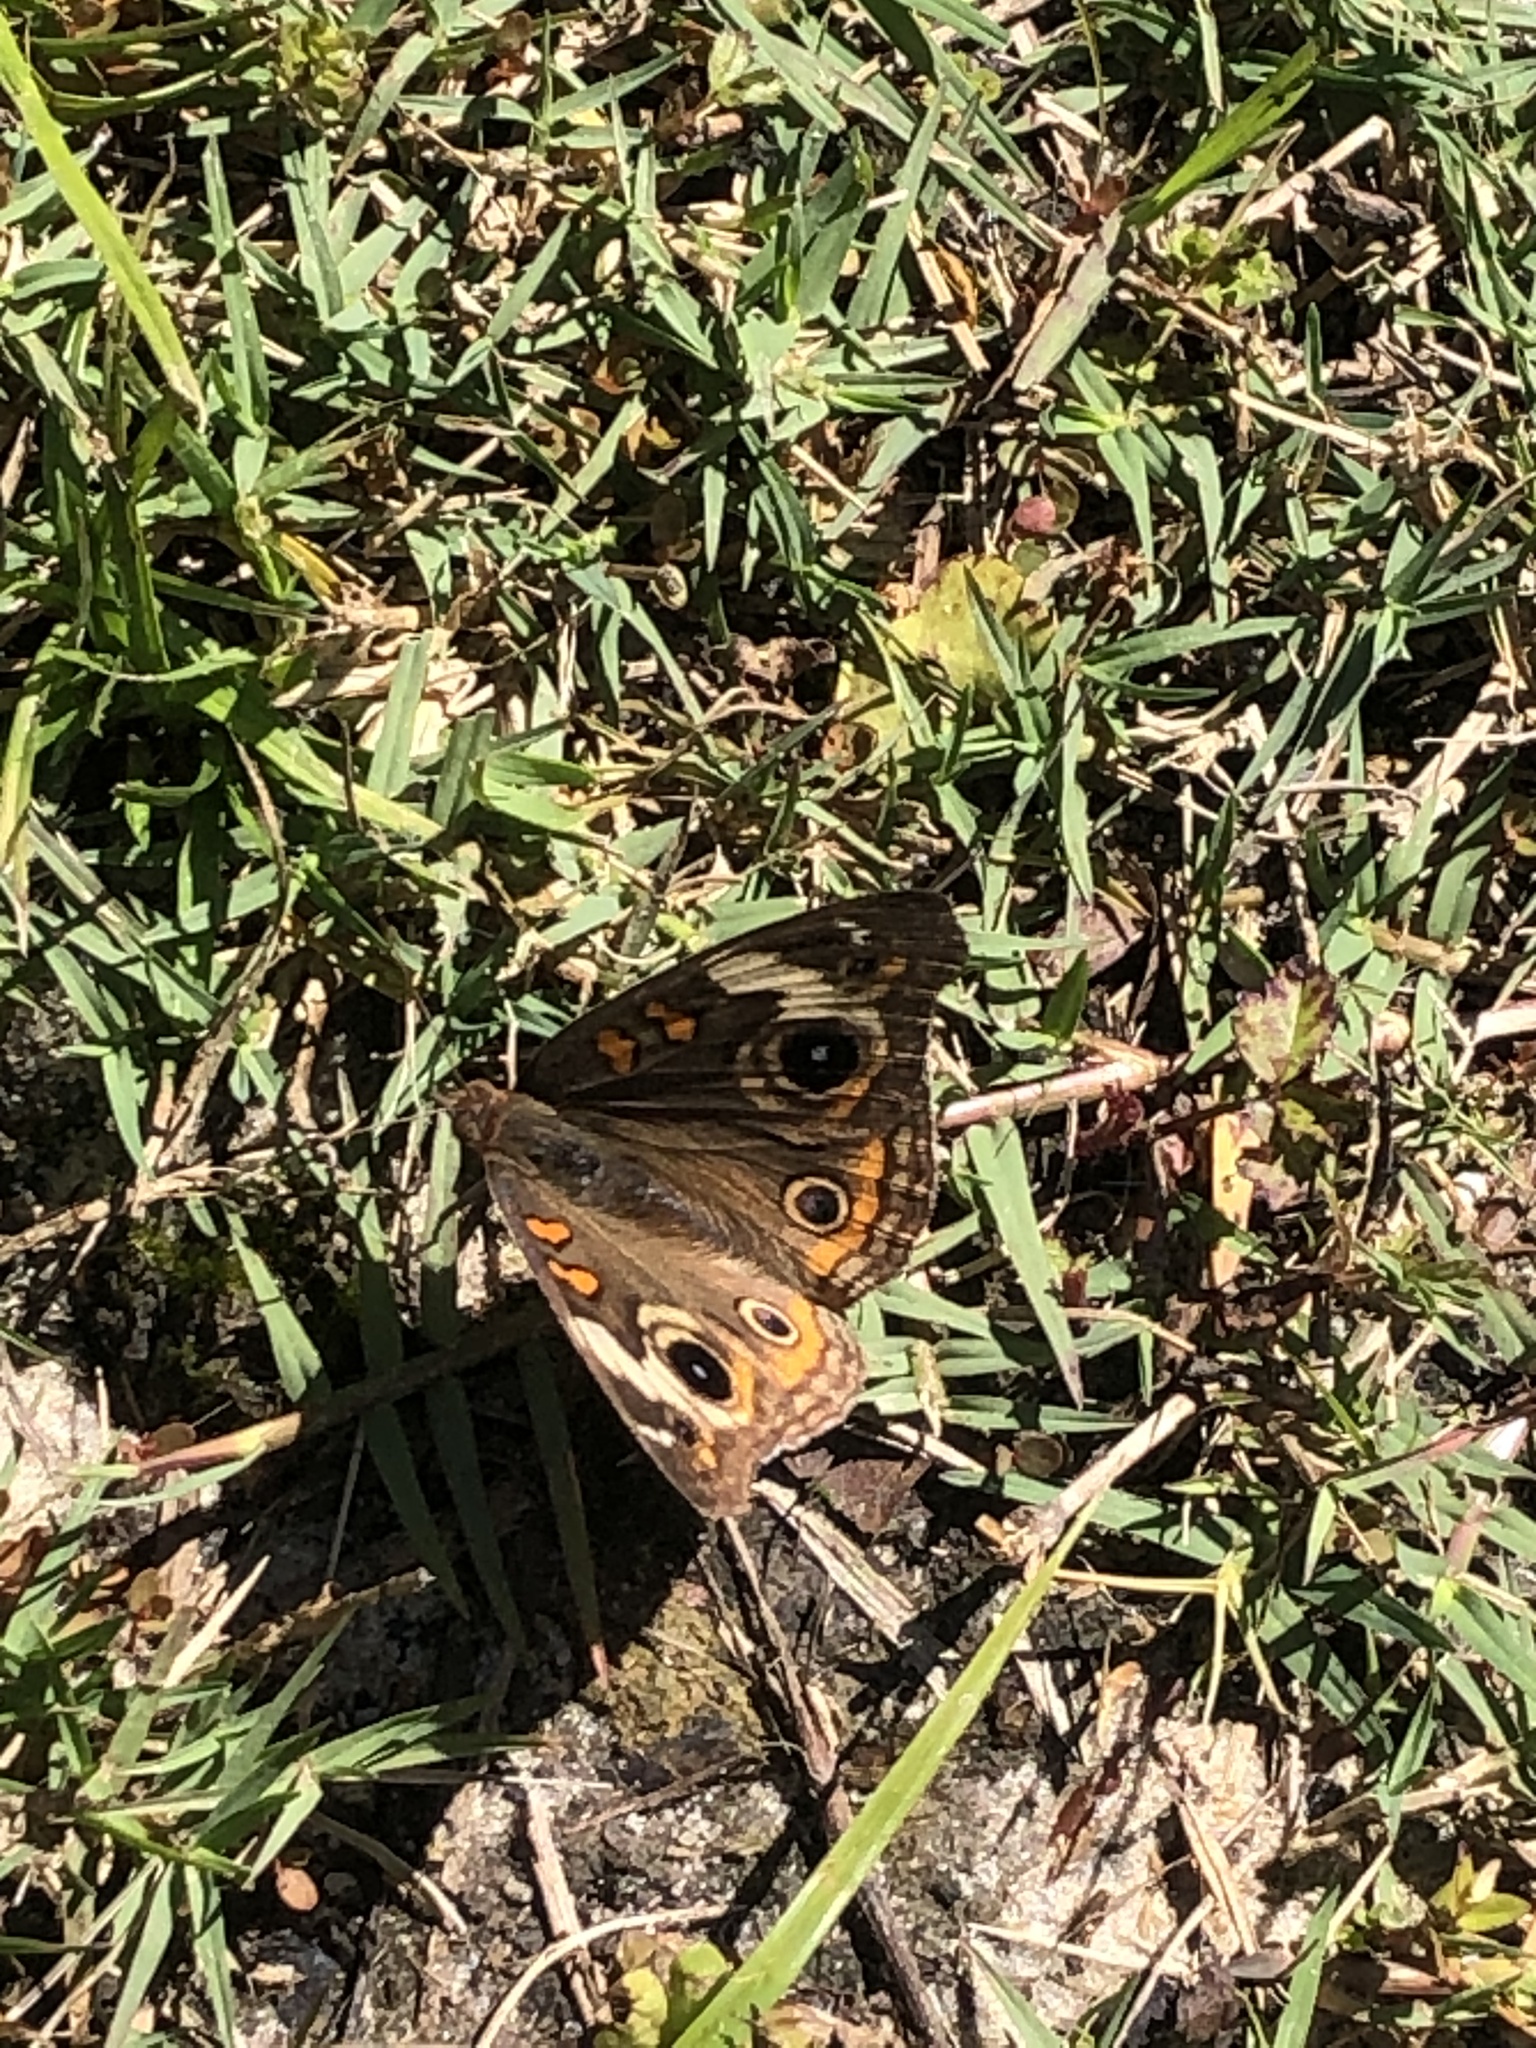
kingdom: Animalia
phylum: Arthropoda
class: Insecta
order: Lepidoptera
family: Nymphalidae
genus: Junonia
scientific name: Junonia coenia
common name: Common buckeye
